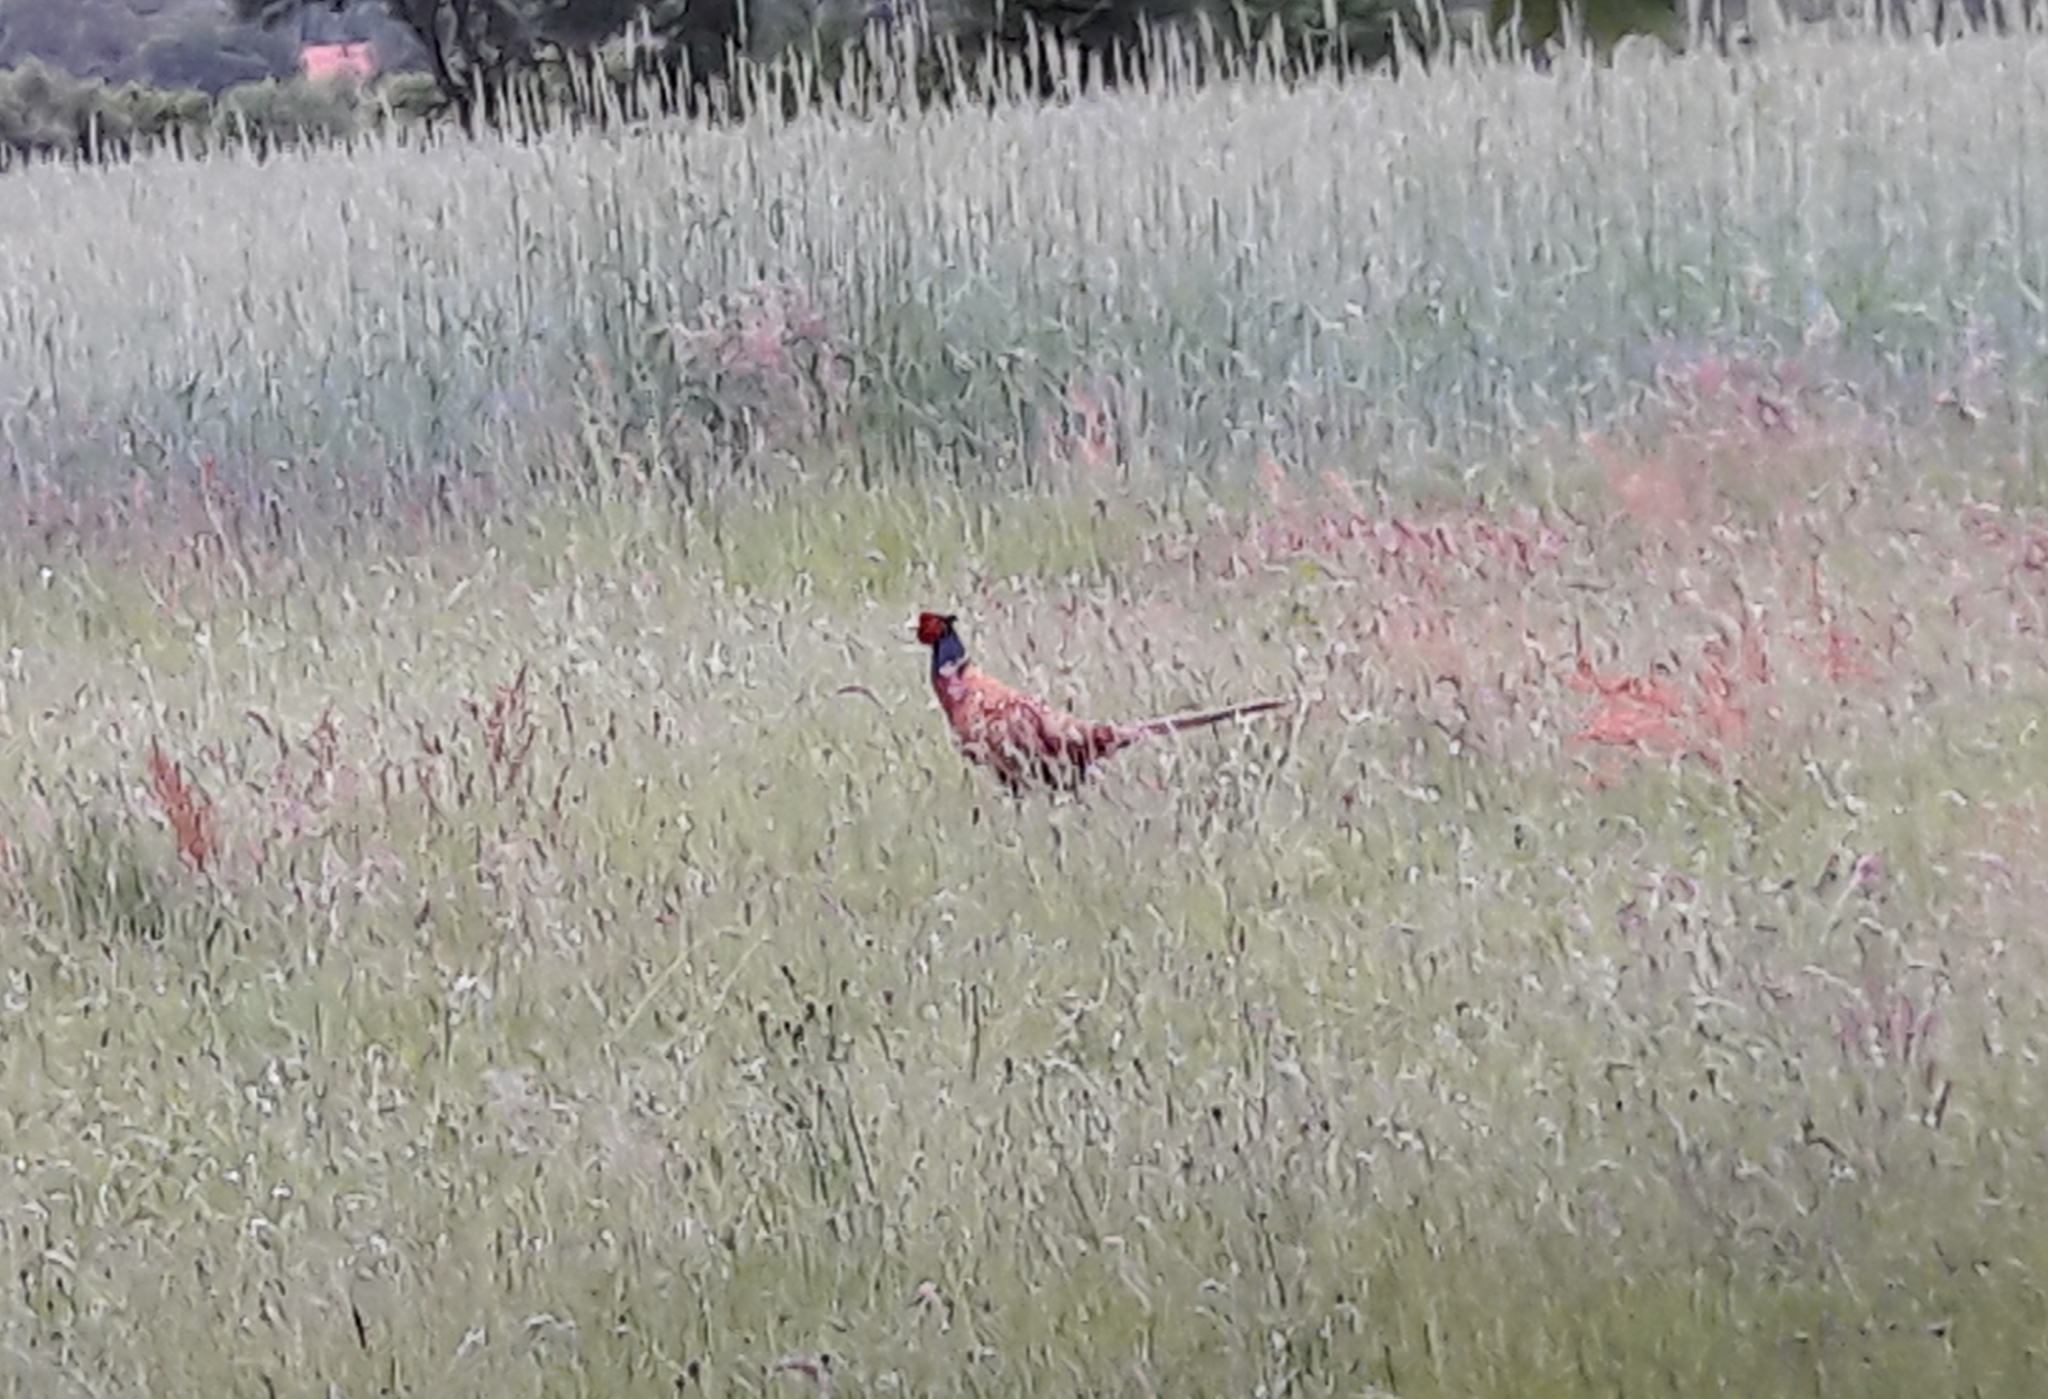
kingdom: Animalia
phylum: Chordata
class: Aves
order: Galliformes
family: Phasianidae
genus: Phasianus
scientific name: Phasianus colchicus
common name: Common pheasant
